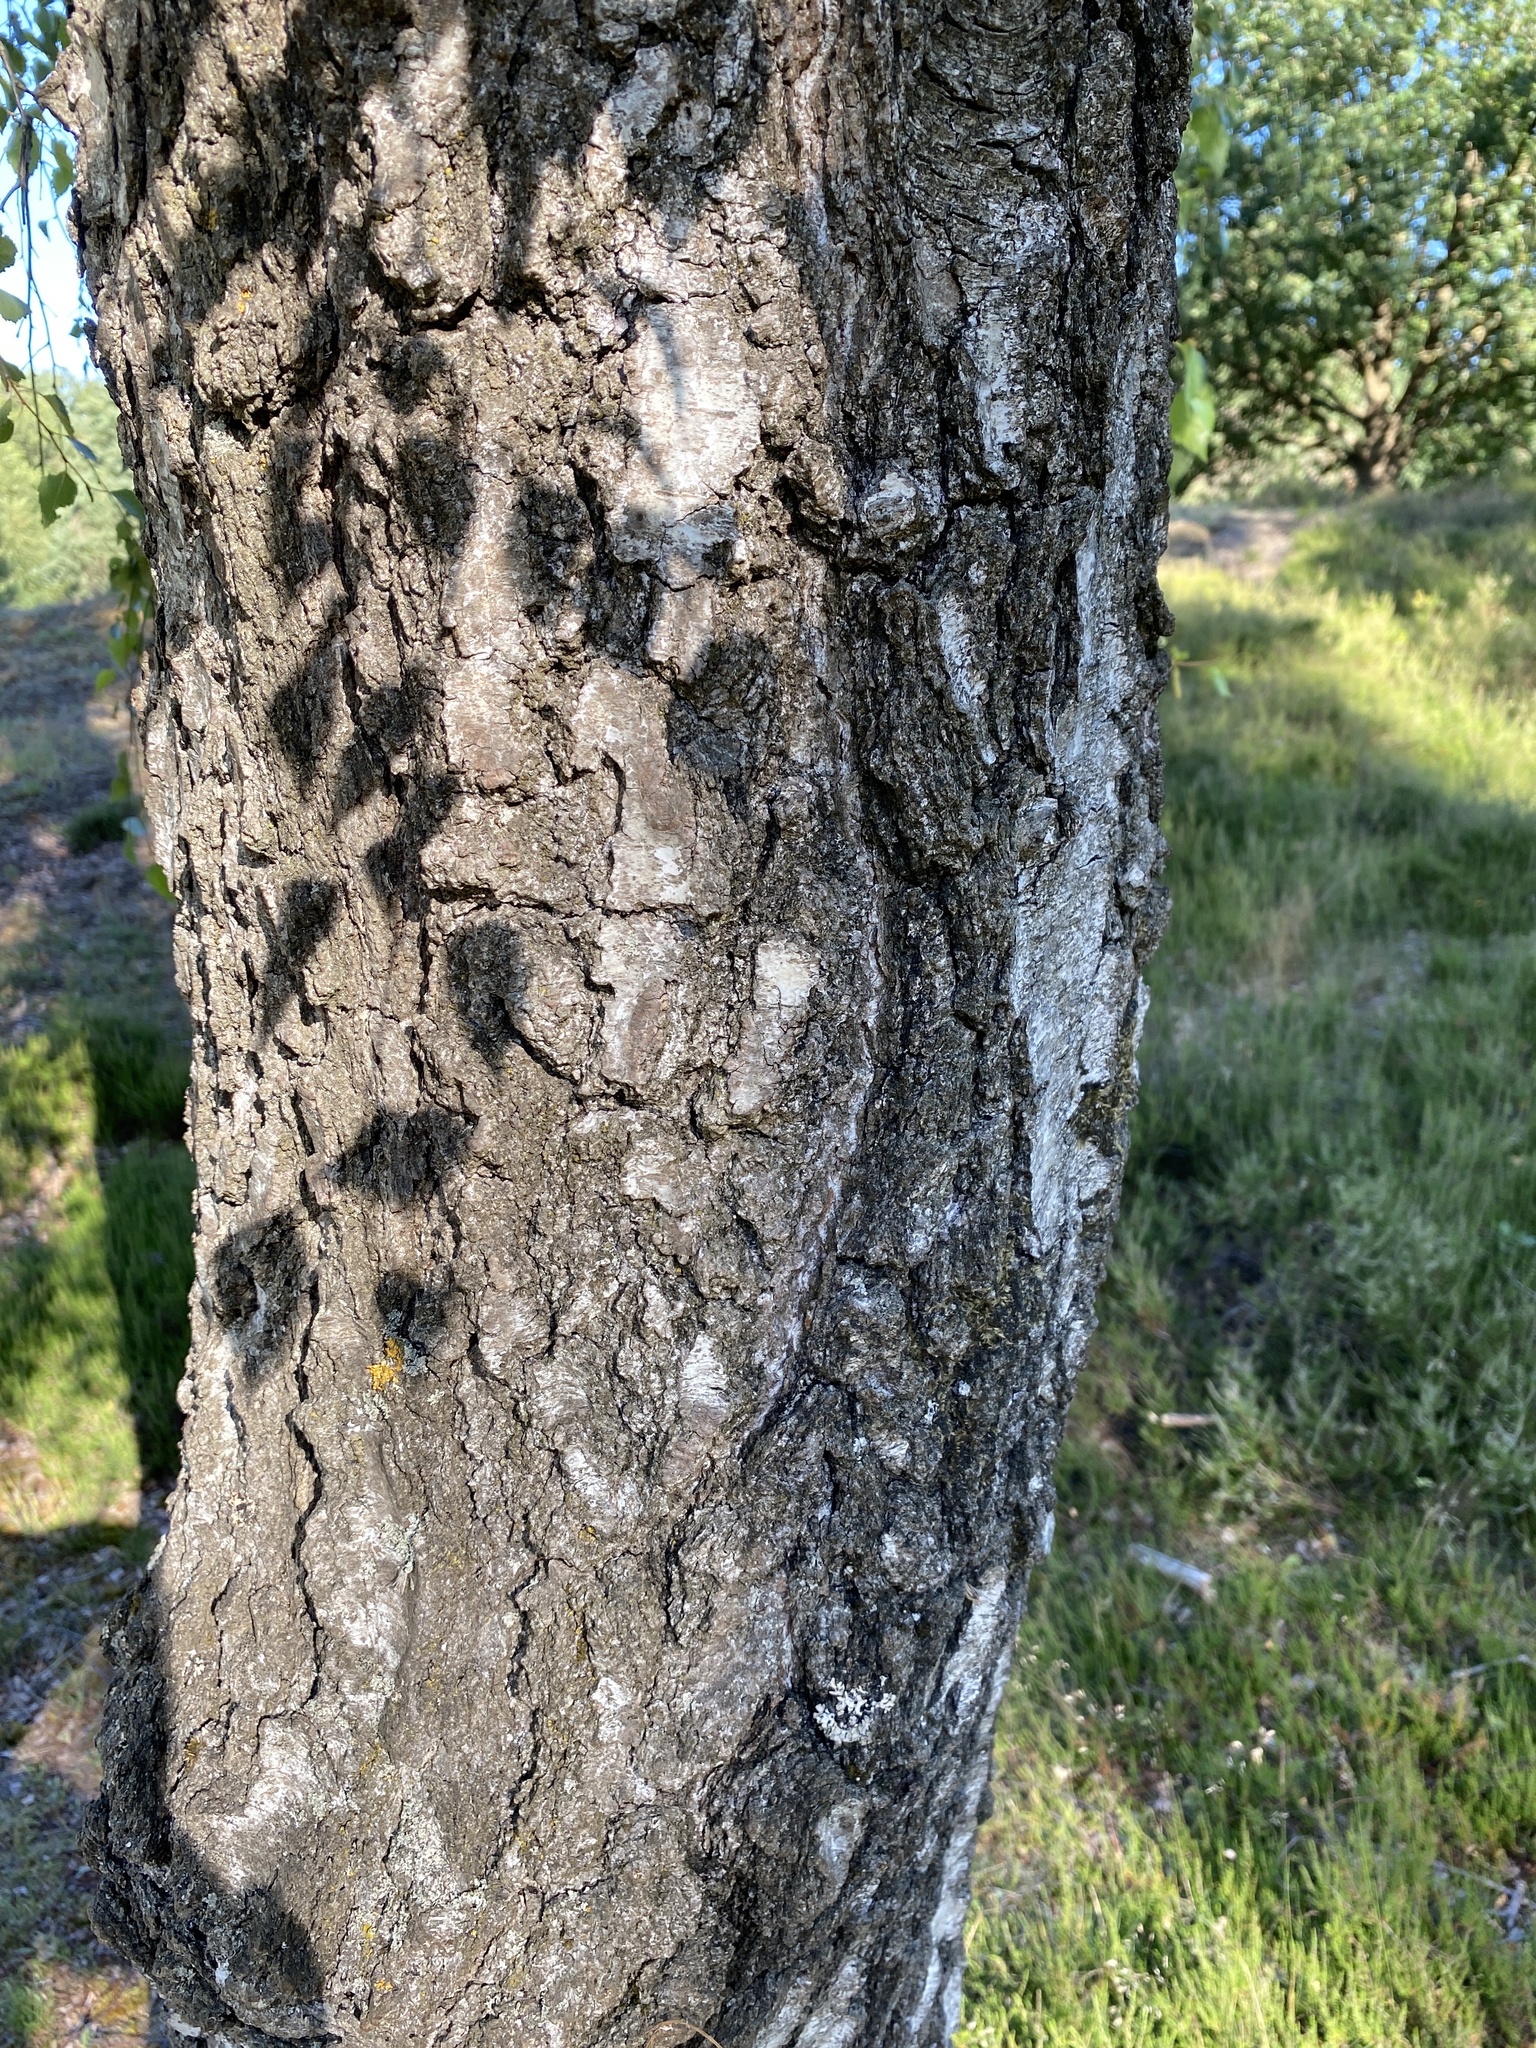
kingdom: Plantae
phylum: Tracheophyta
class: Magnoliopsida
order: Fagales
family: Betulaceae
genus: Betula
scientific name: Betula pendula
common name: Silver birch
